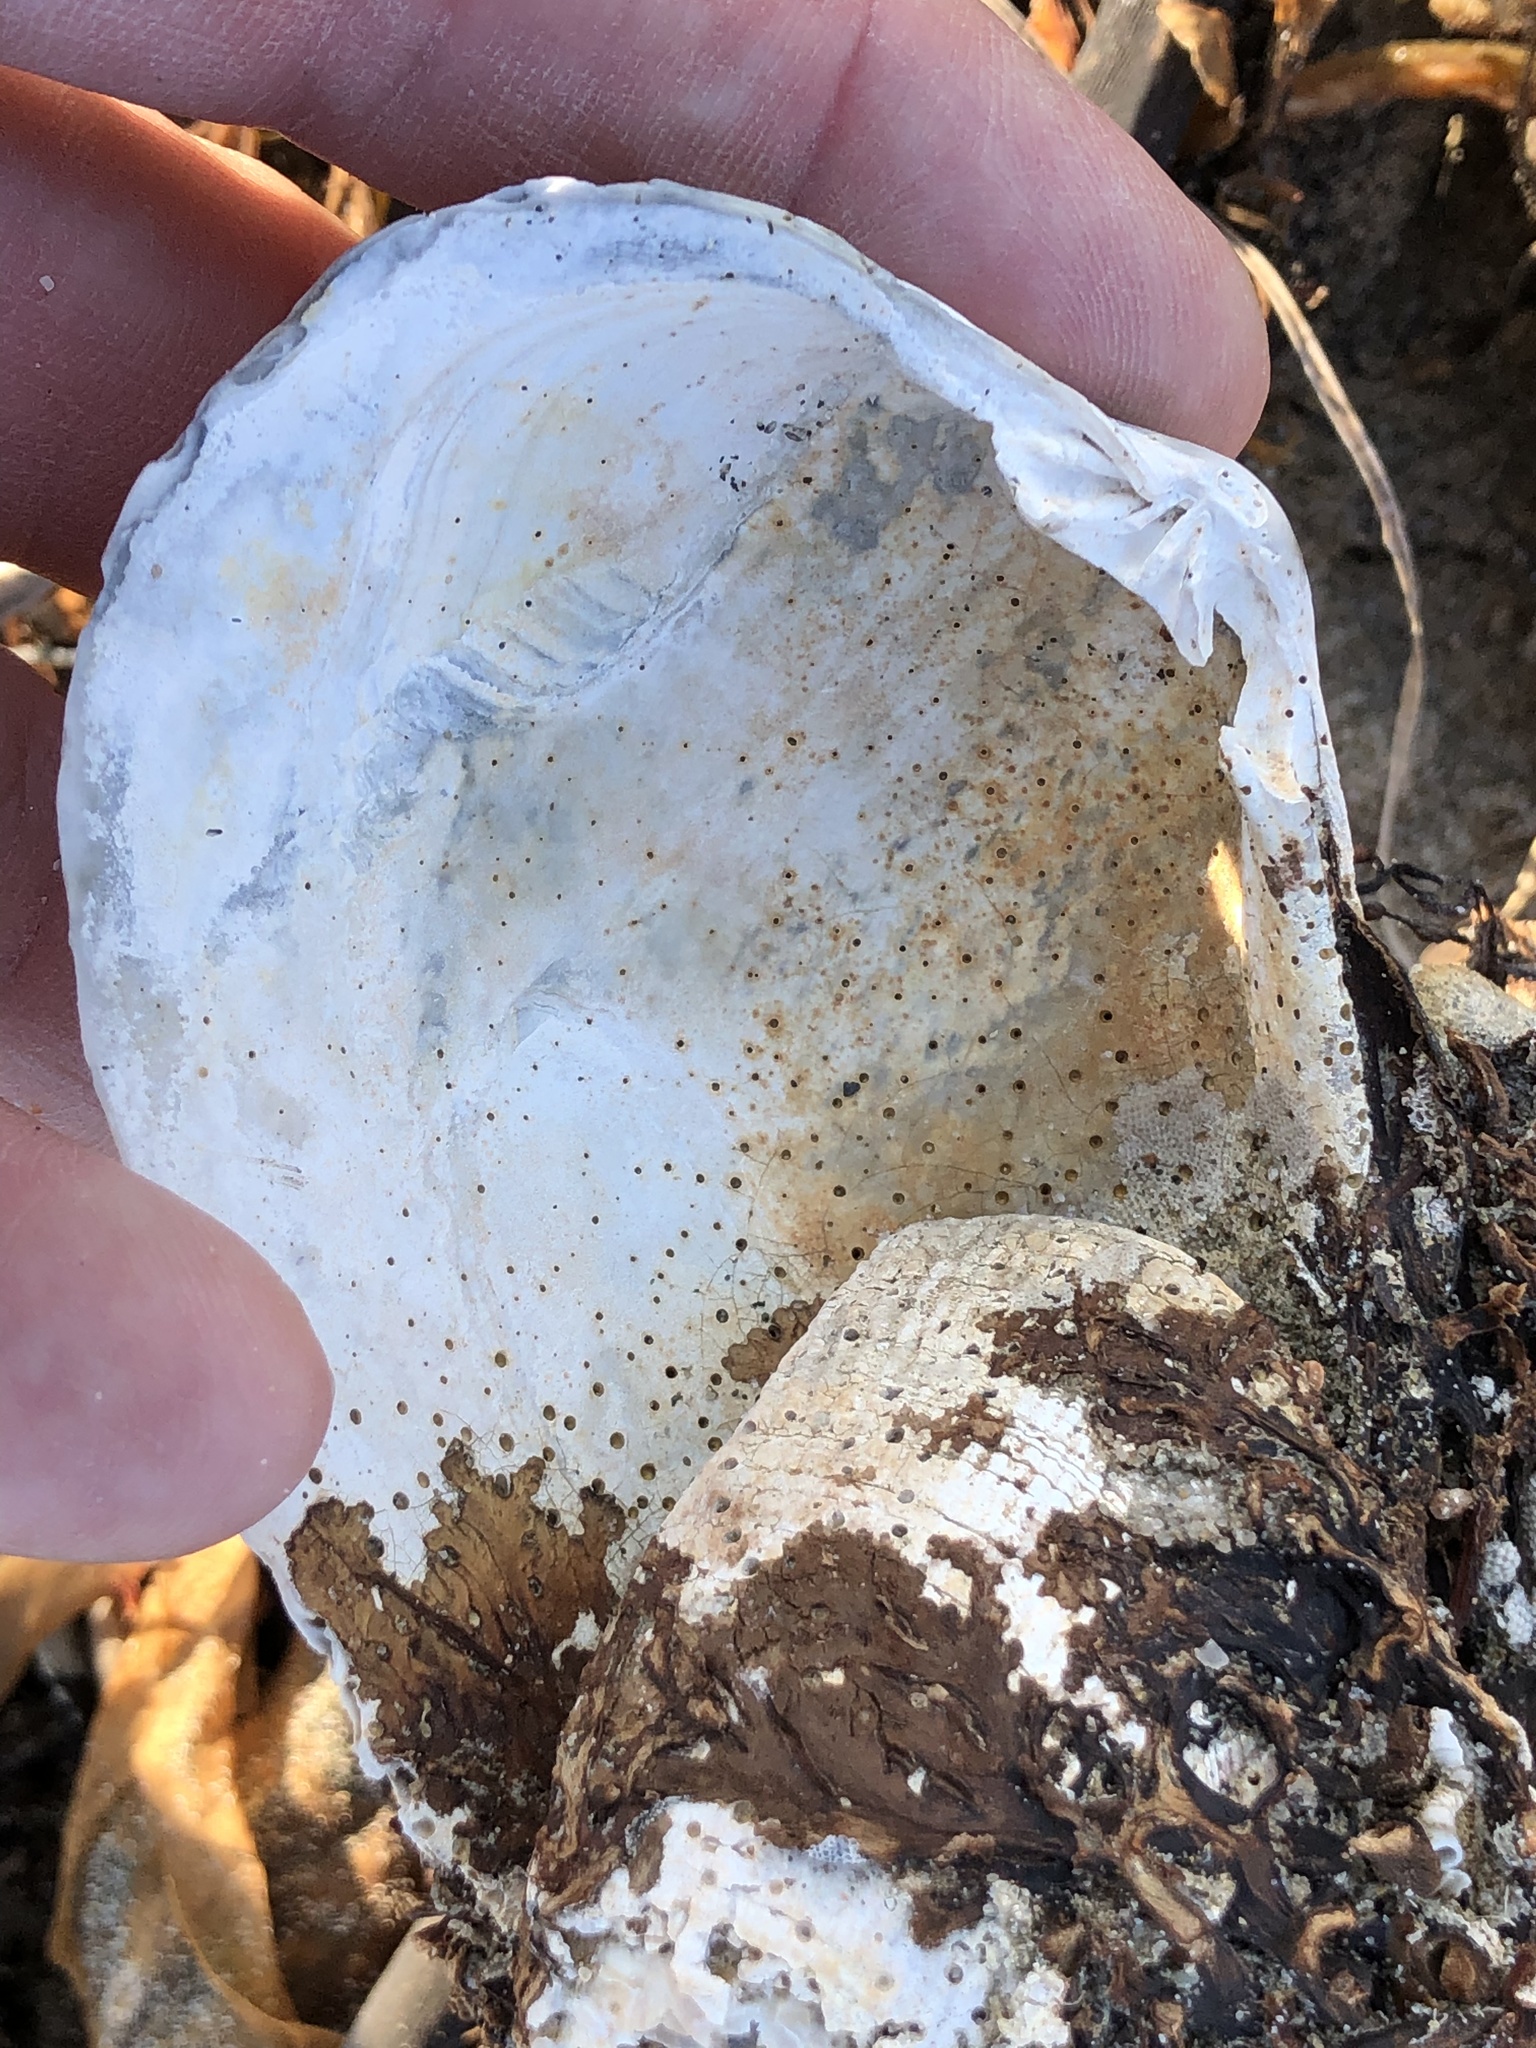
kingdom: Animalia
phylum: Mollusca
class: Bivalvia
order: Venerida
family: Veneridae
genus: Saxidomus
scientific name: Saxidomus nuttalli
